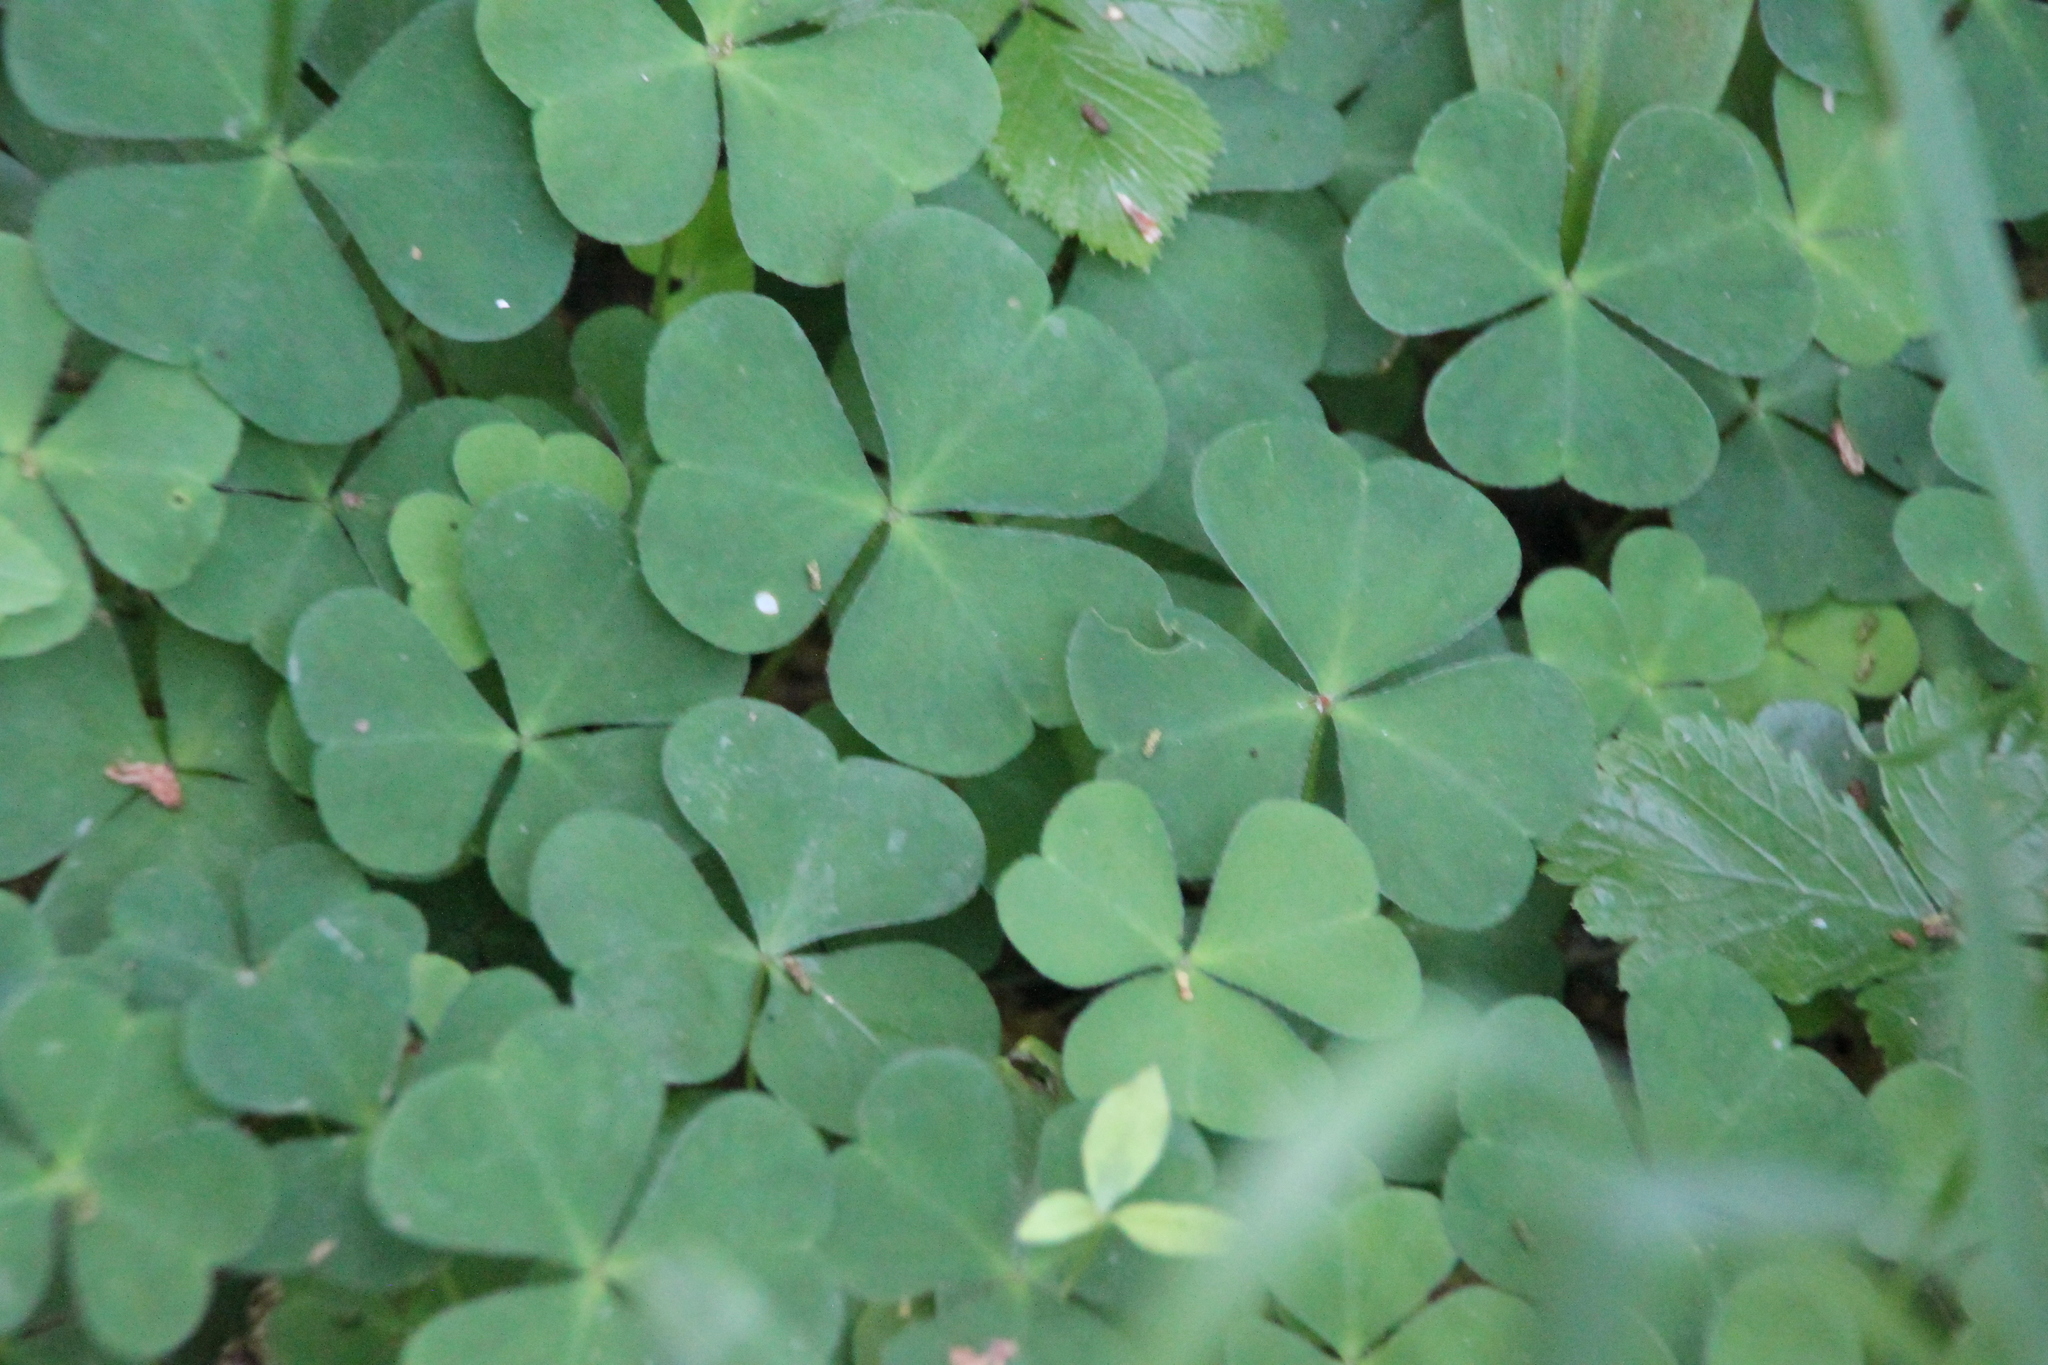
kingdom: Plantae
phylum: Tracheophyta
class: Magnoliopsida
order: Oxalidales
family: Oxalidaceae
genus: Oxalis
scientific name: Oxalis acetosella
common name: Wood-sorrel
